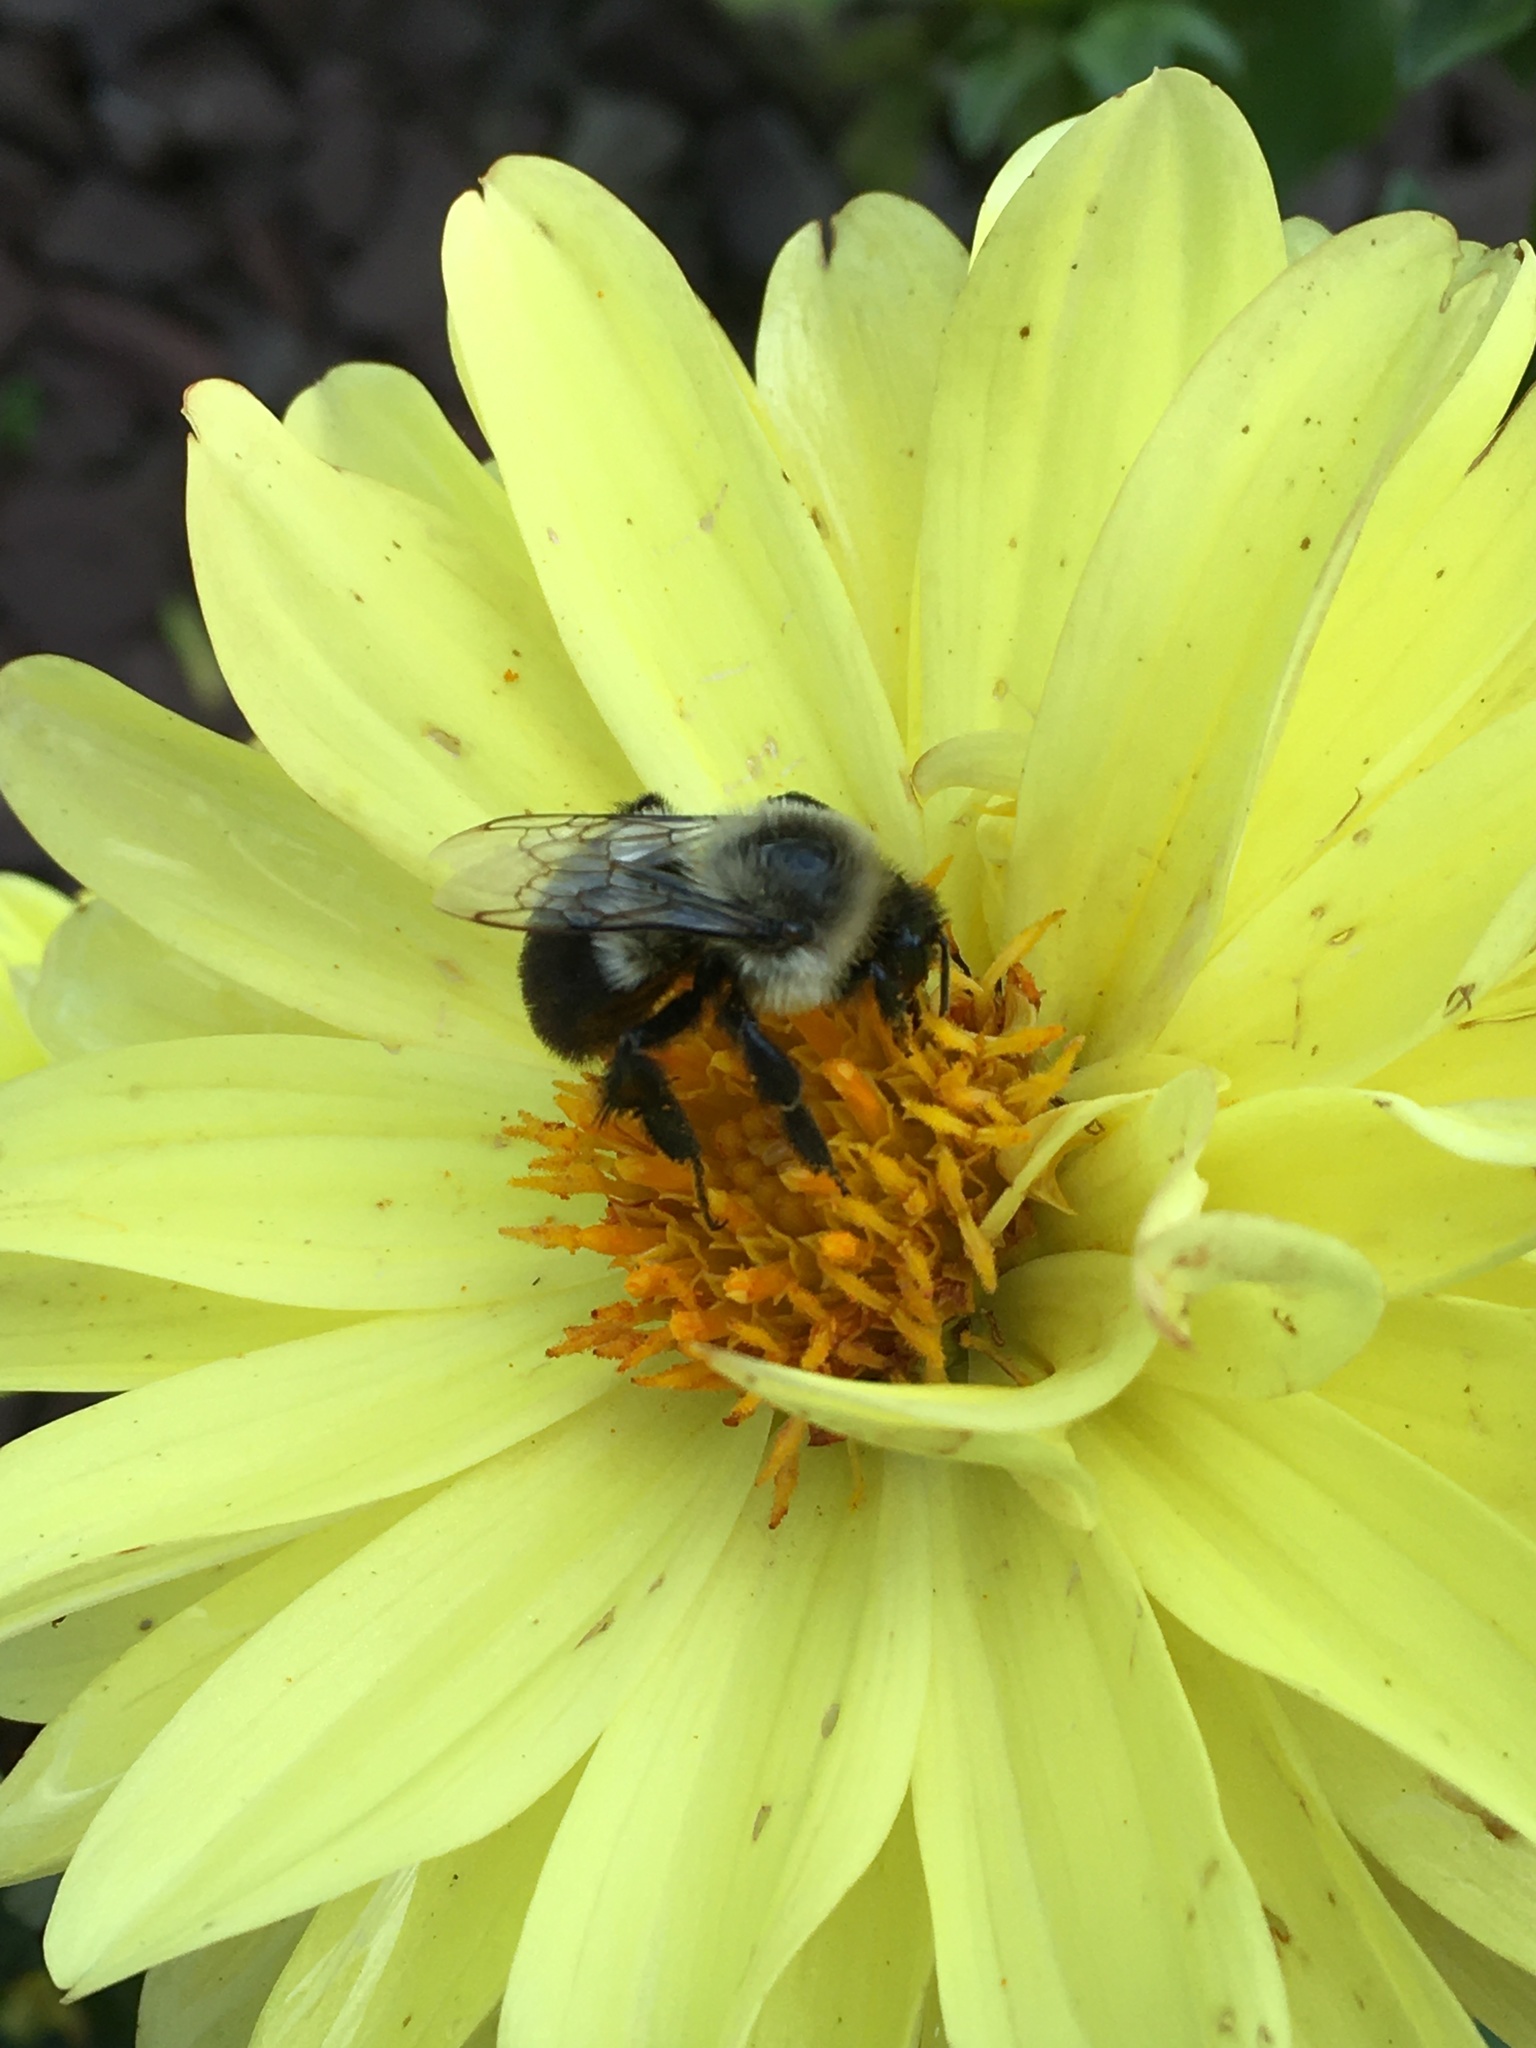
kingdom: Animalia
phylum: Arthropoda
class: Insecta
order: Hymenoptera
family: Apidae
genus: Bombus
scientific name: Bombus impatiens
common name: Common eastern bumble bee
